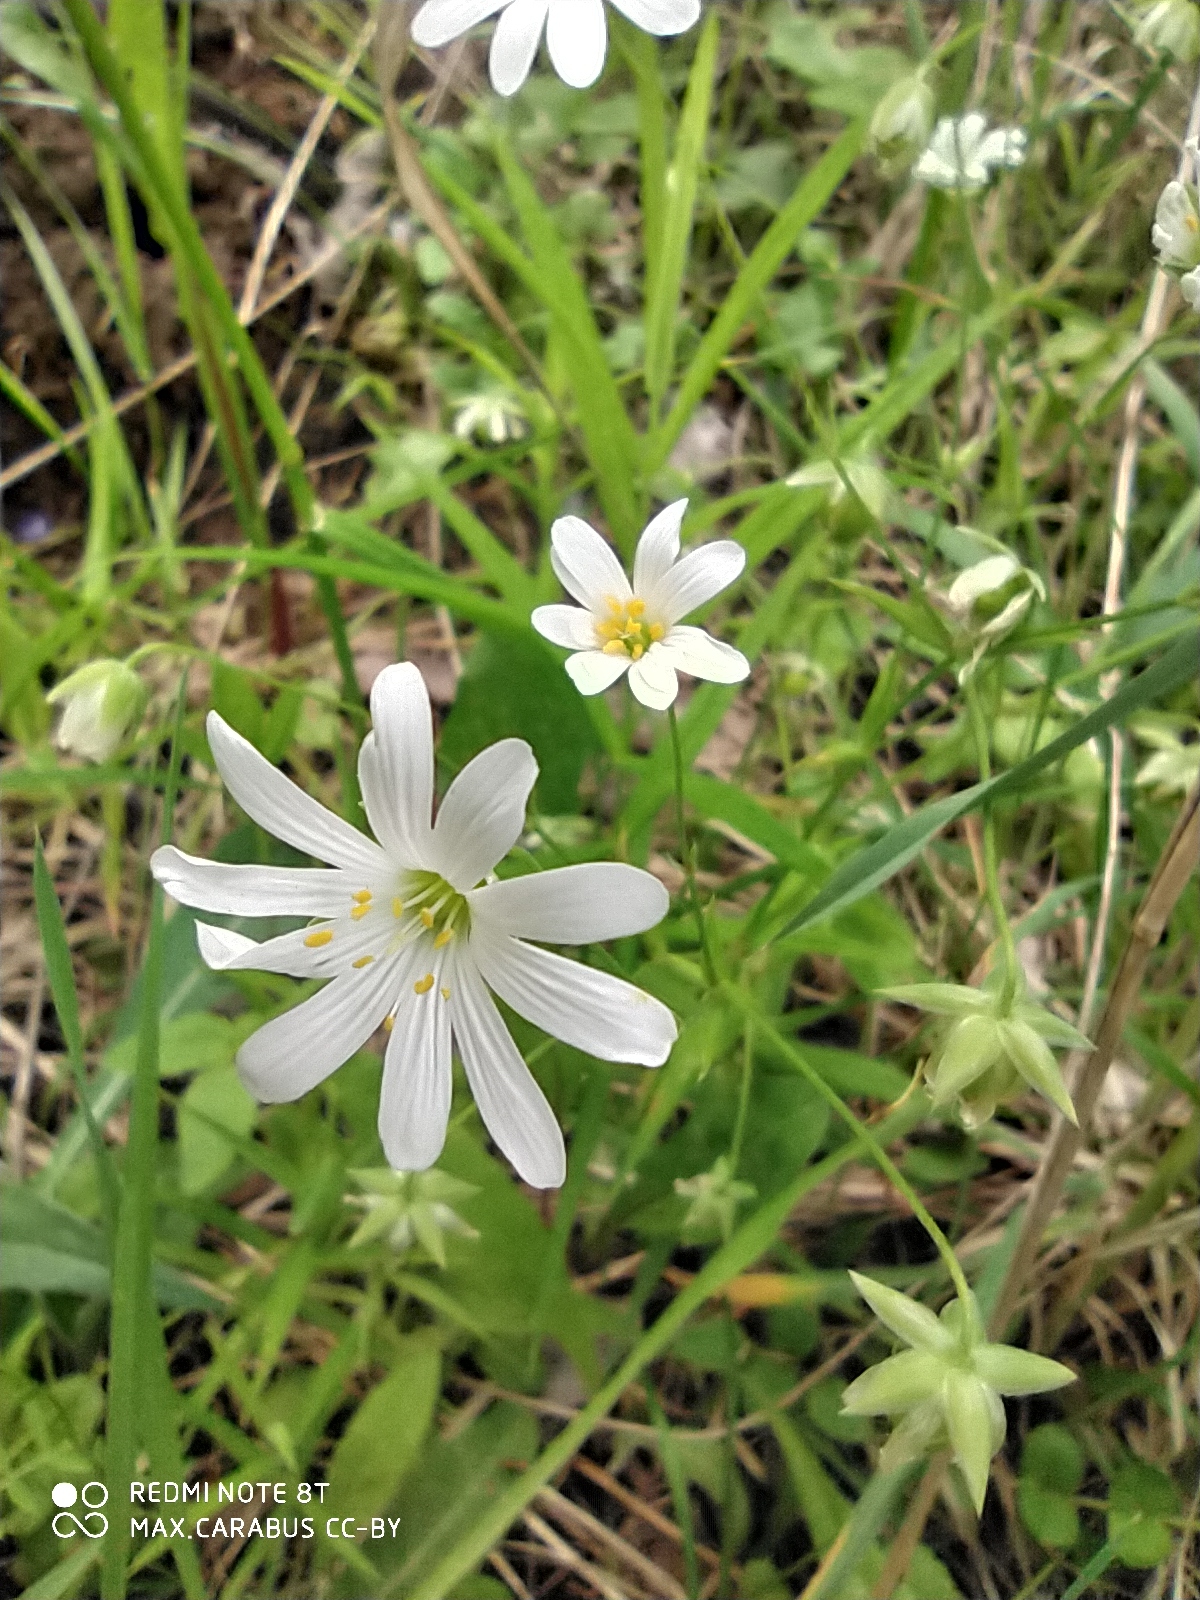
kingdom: Plantae
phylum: Tracheophyta
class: Magnoliopsida
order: Caryophyllales
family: Caryophyllaceae
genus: Rabelera
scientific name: Rabelera holostea
